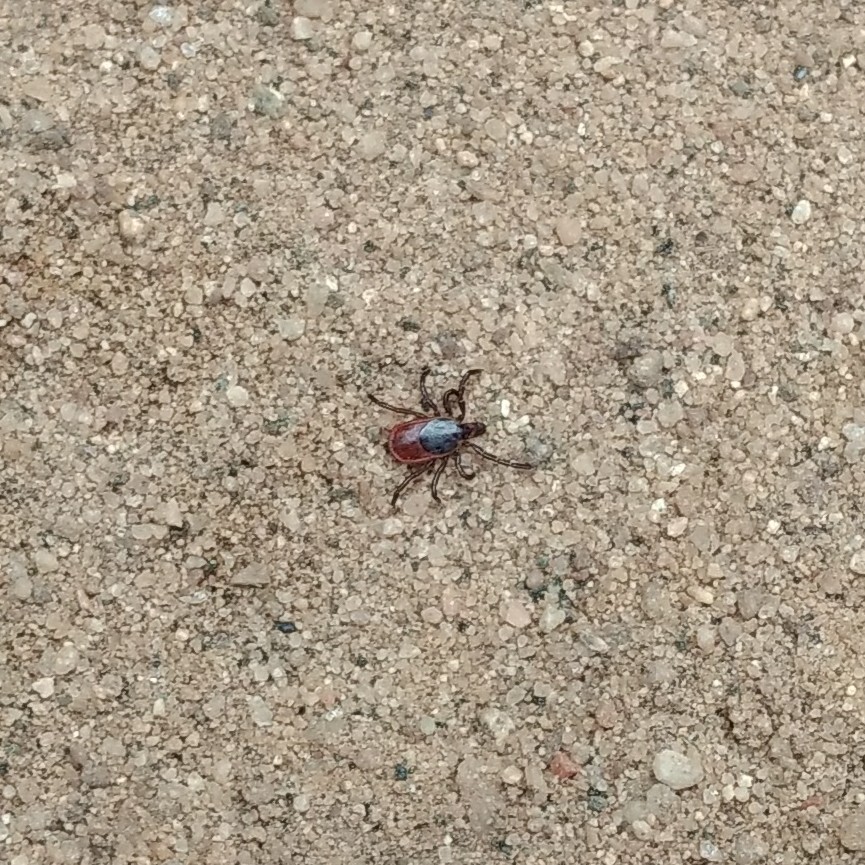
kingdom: Animalia
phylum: Arthropoda
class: Arachnida
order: Ixodida
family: Ixodidae
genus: Ixodes
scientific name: Ixodes scapularis
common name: Black legged tick
